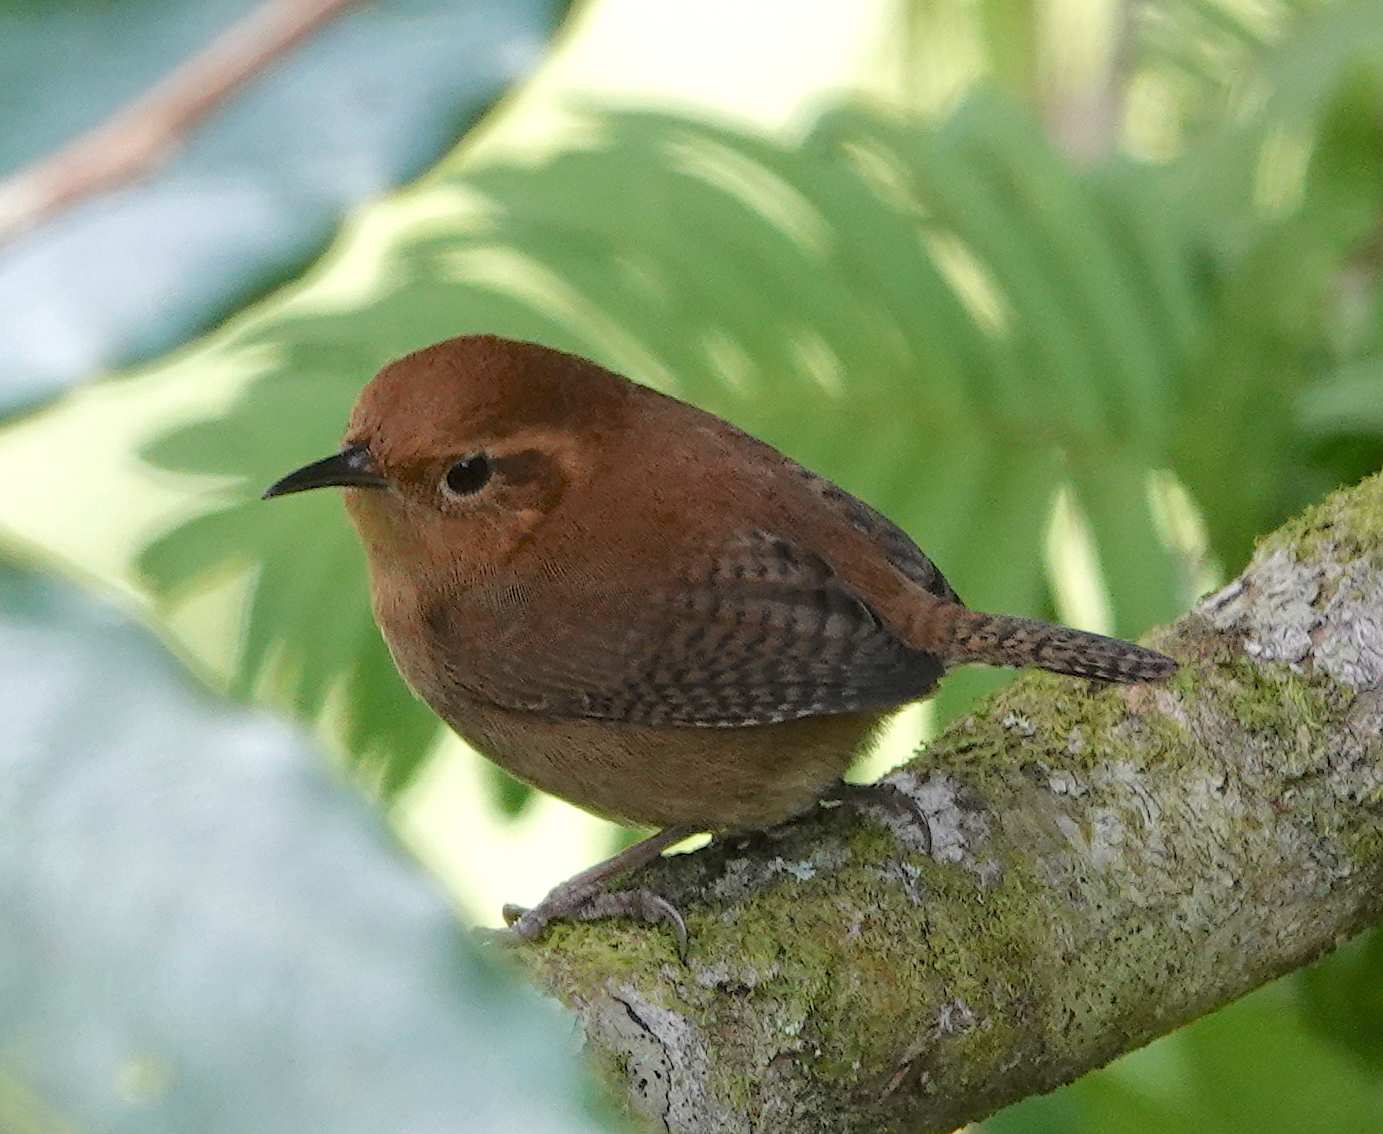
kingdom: Animalia
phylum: Chordata
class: Aves
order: Passeriformes
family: Troglodytidae
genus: Troglodytes
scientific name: Troglodytes ochraceus
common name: Ochraceous wren
